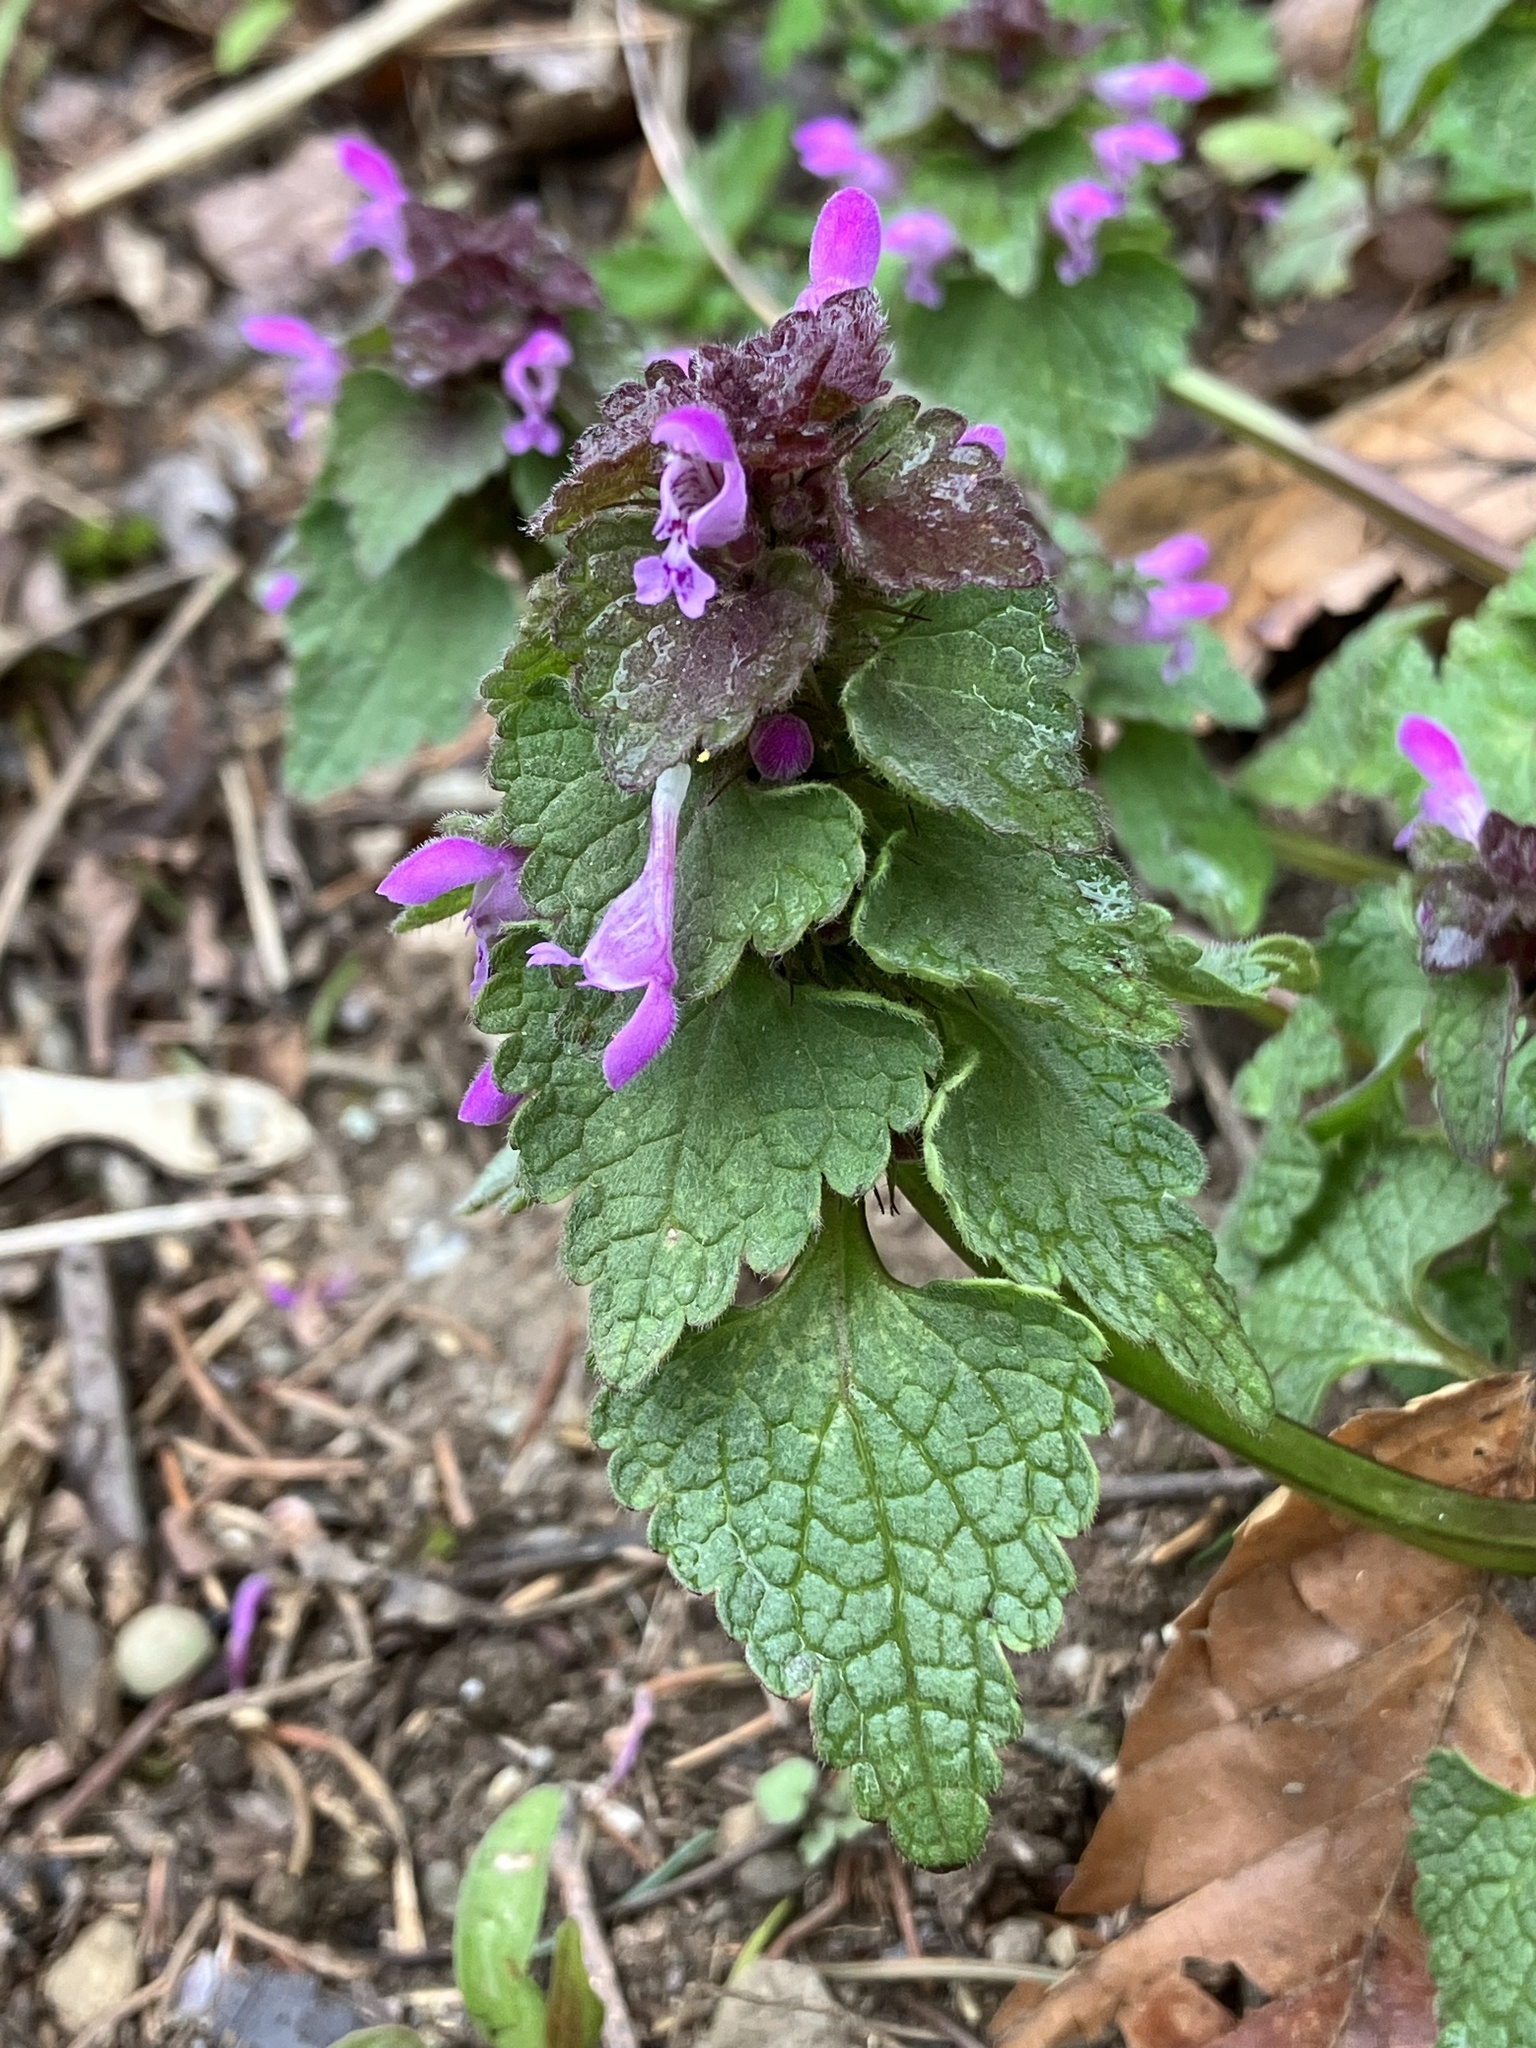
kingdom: Plantae
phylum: Tracheophyta
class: Magnoliopsida
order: Lamiales
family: Lamiaceae
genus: Lamium
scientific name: Lamium purpureum
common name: Red dead-nettle
